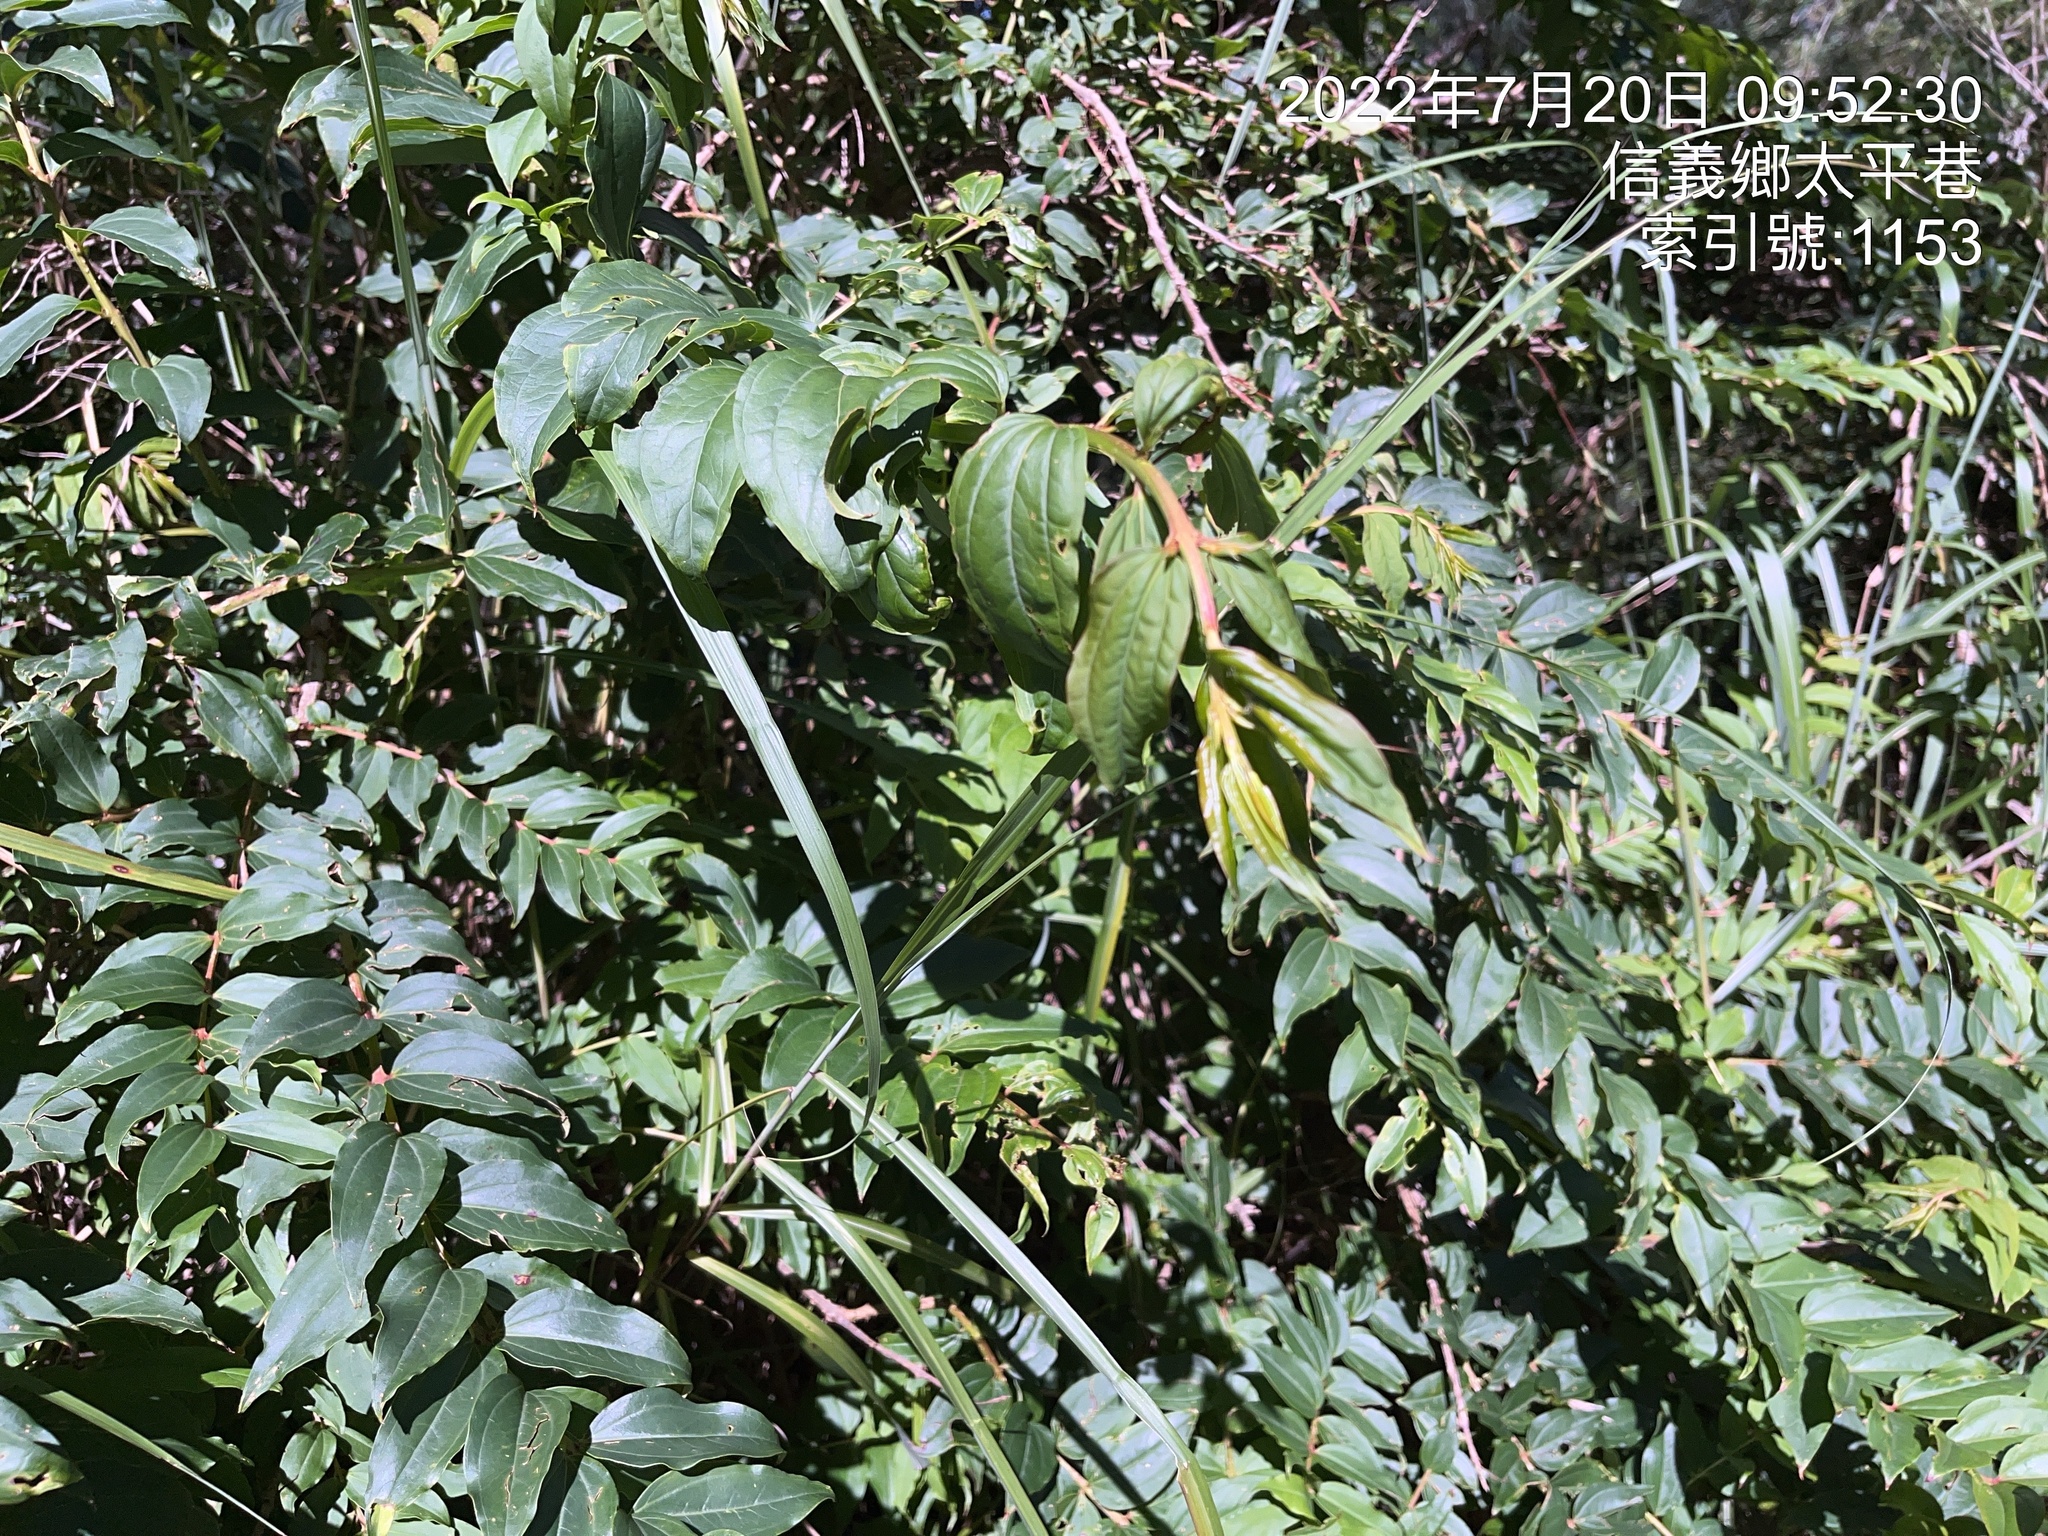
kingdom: Plantae
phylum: Tracheophyta
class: Magnoliopsida
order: Cucurbitales
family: Coriariaceae
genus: Coriaria
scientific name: Coriaria japonica
